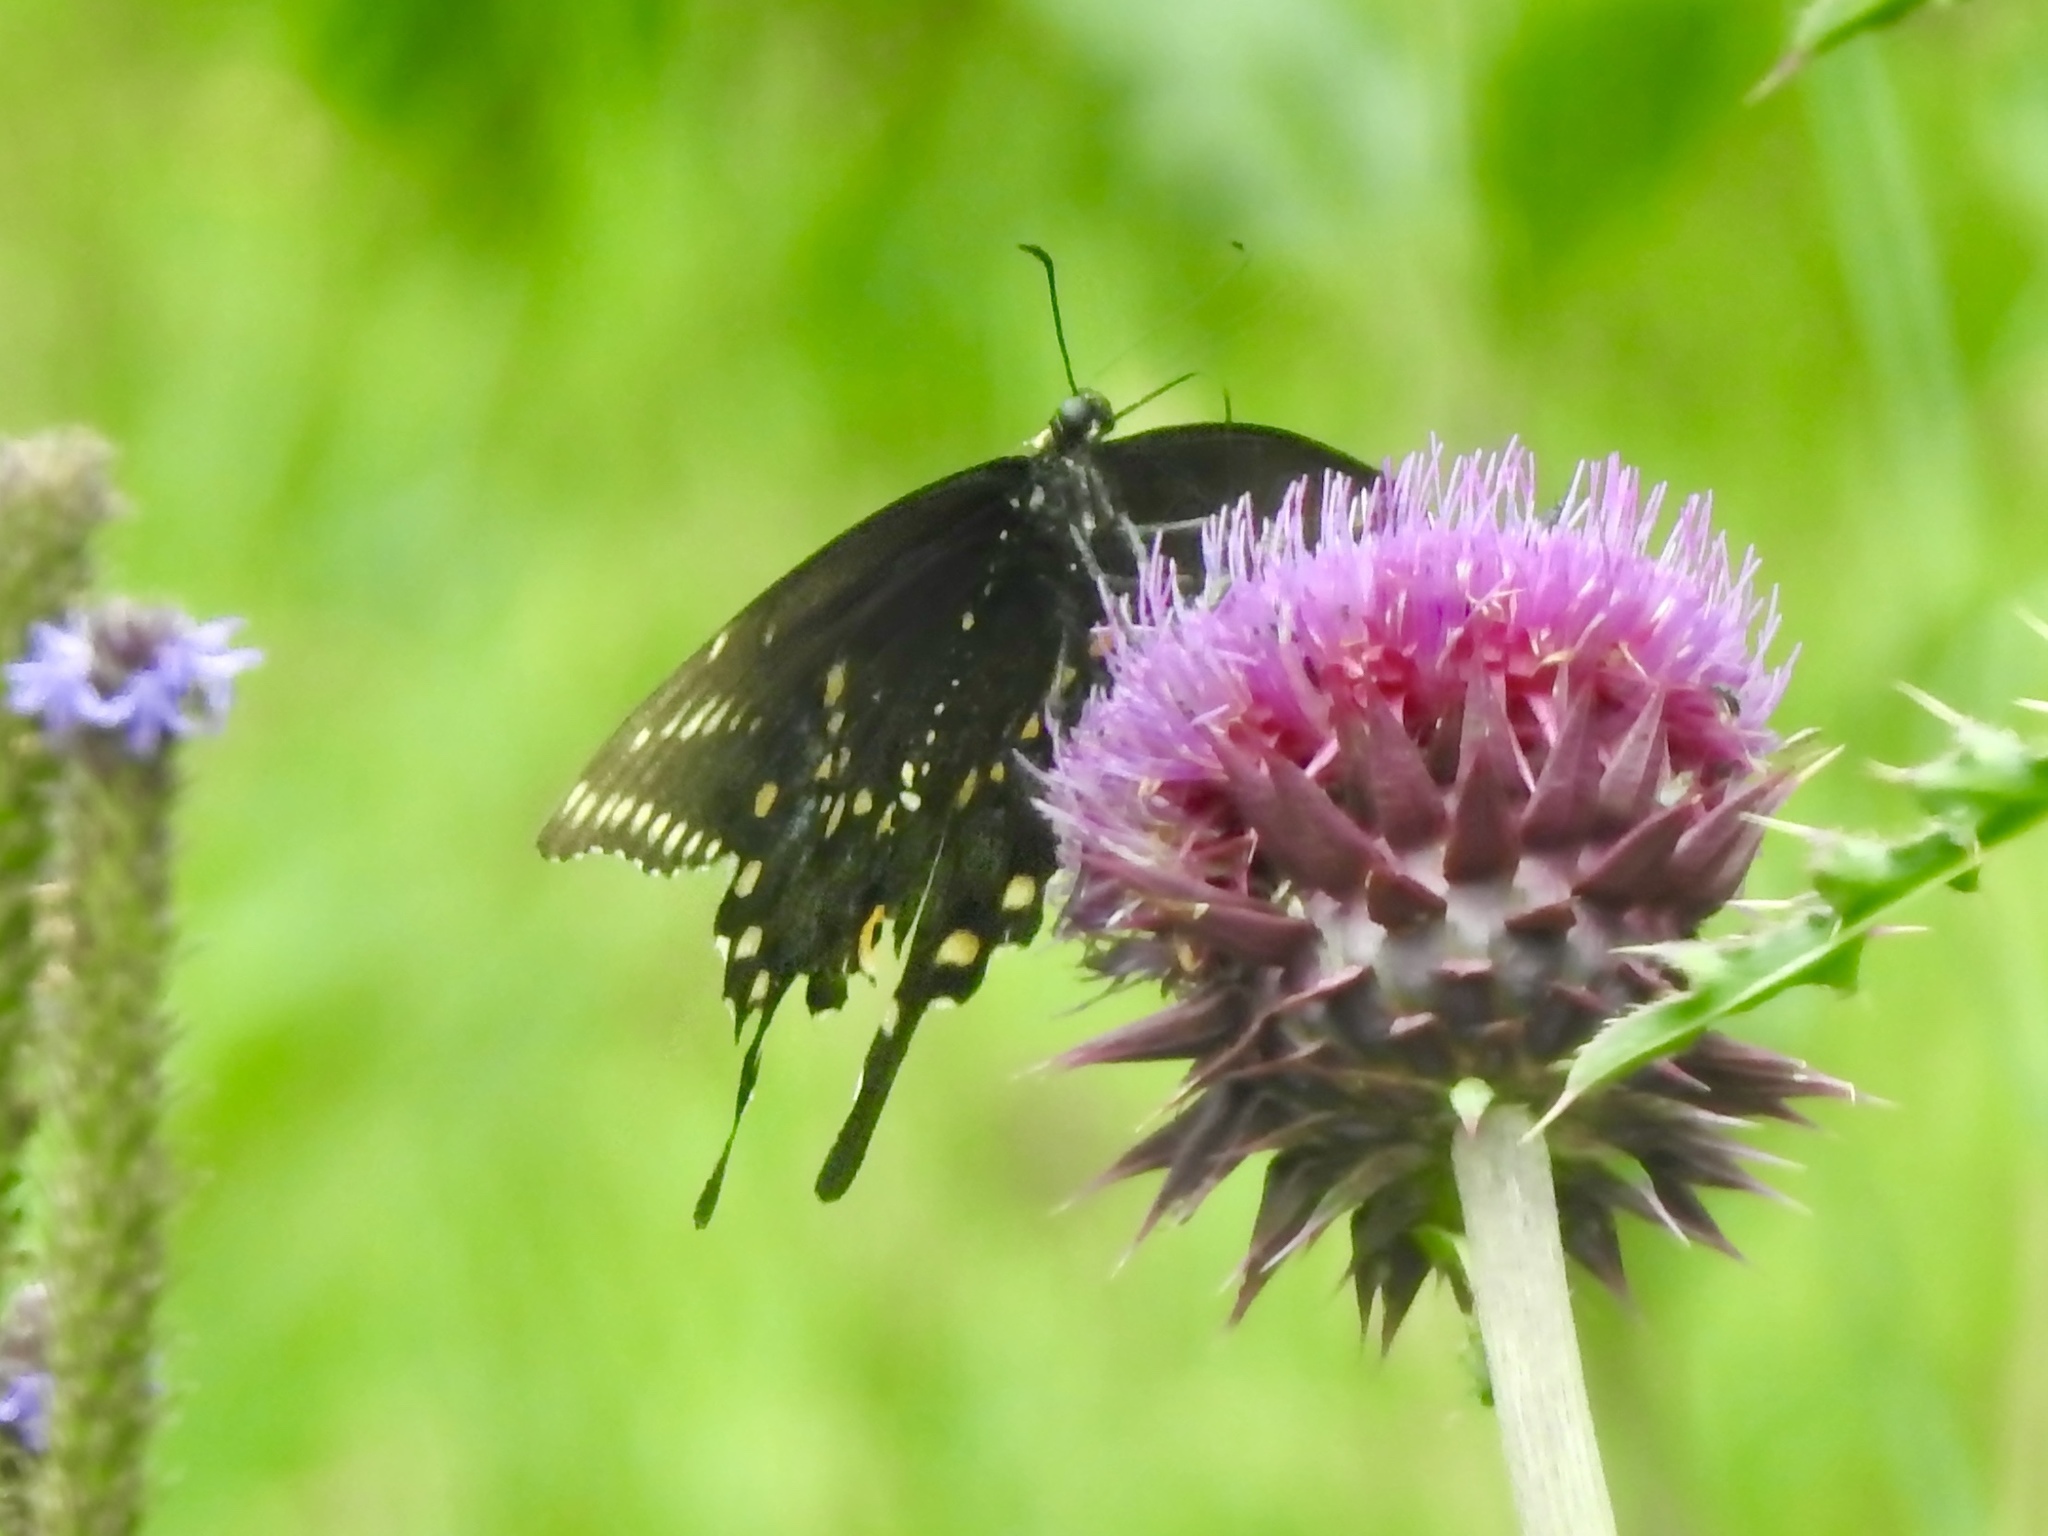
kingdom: Animalia
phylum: Arthropoda
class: Insecta
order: Lepidoptera
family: Papilionidae
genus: Papilio
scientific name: Papilio polyxenes
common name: Black swallowtail
